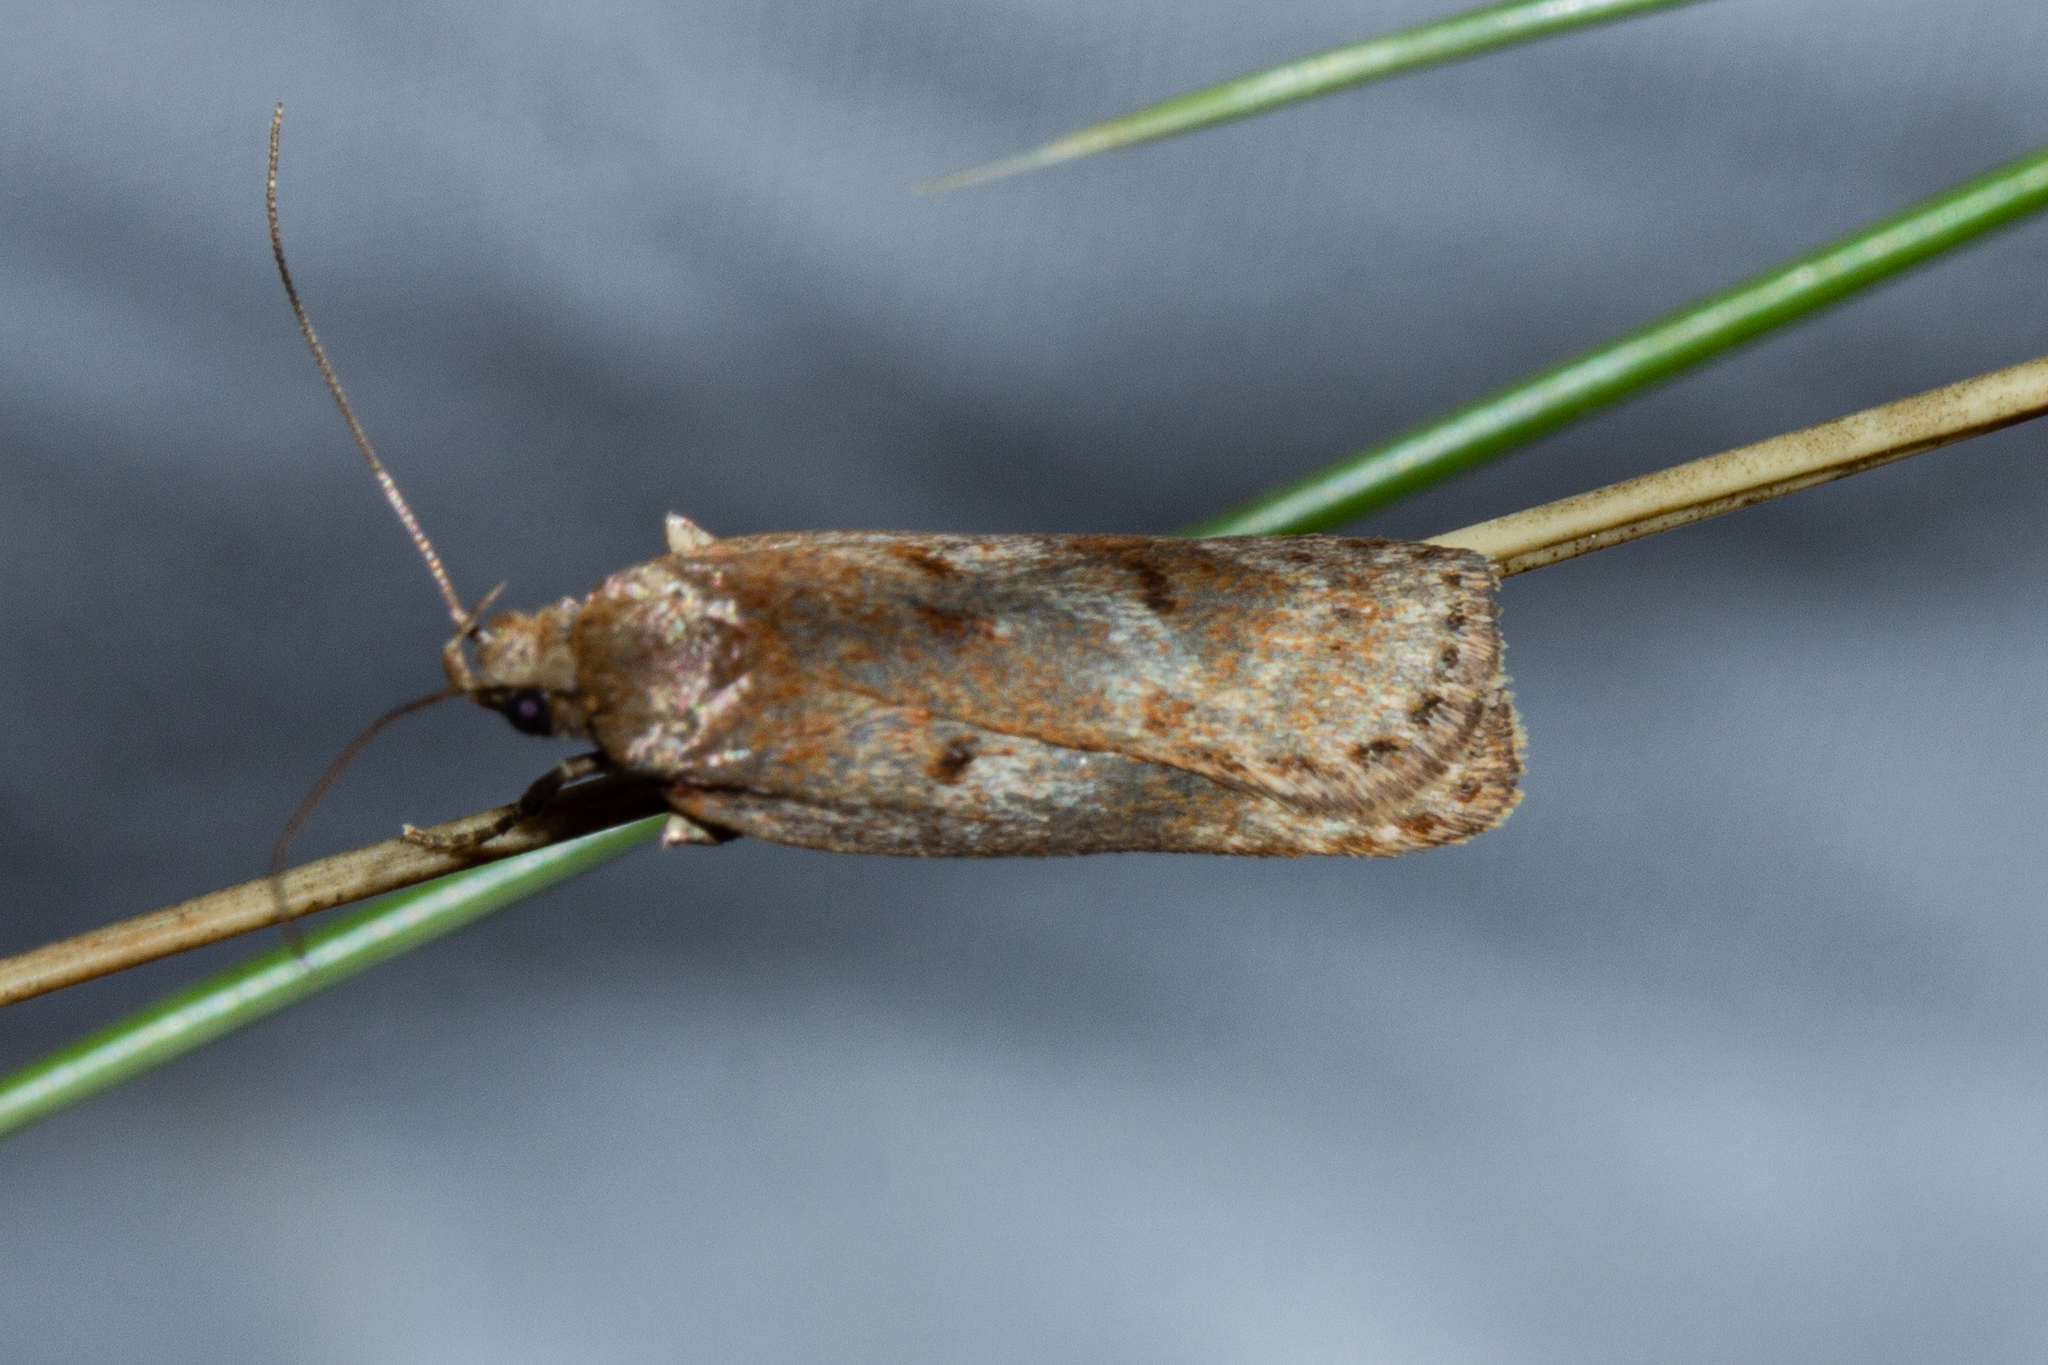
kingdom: Animalia
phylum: Arthropoda
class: Insecta
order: Lepidoptera
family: Depressariidae
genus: Phaeosaces
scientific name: Phaeosaces apocrypta
